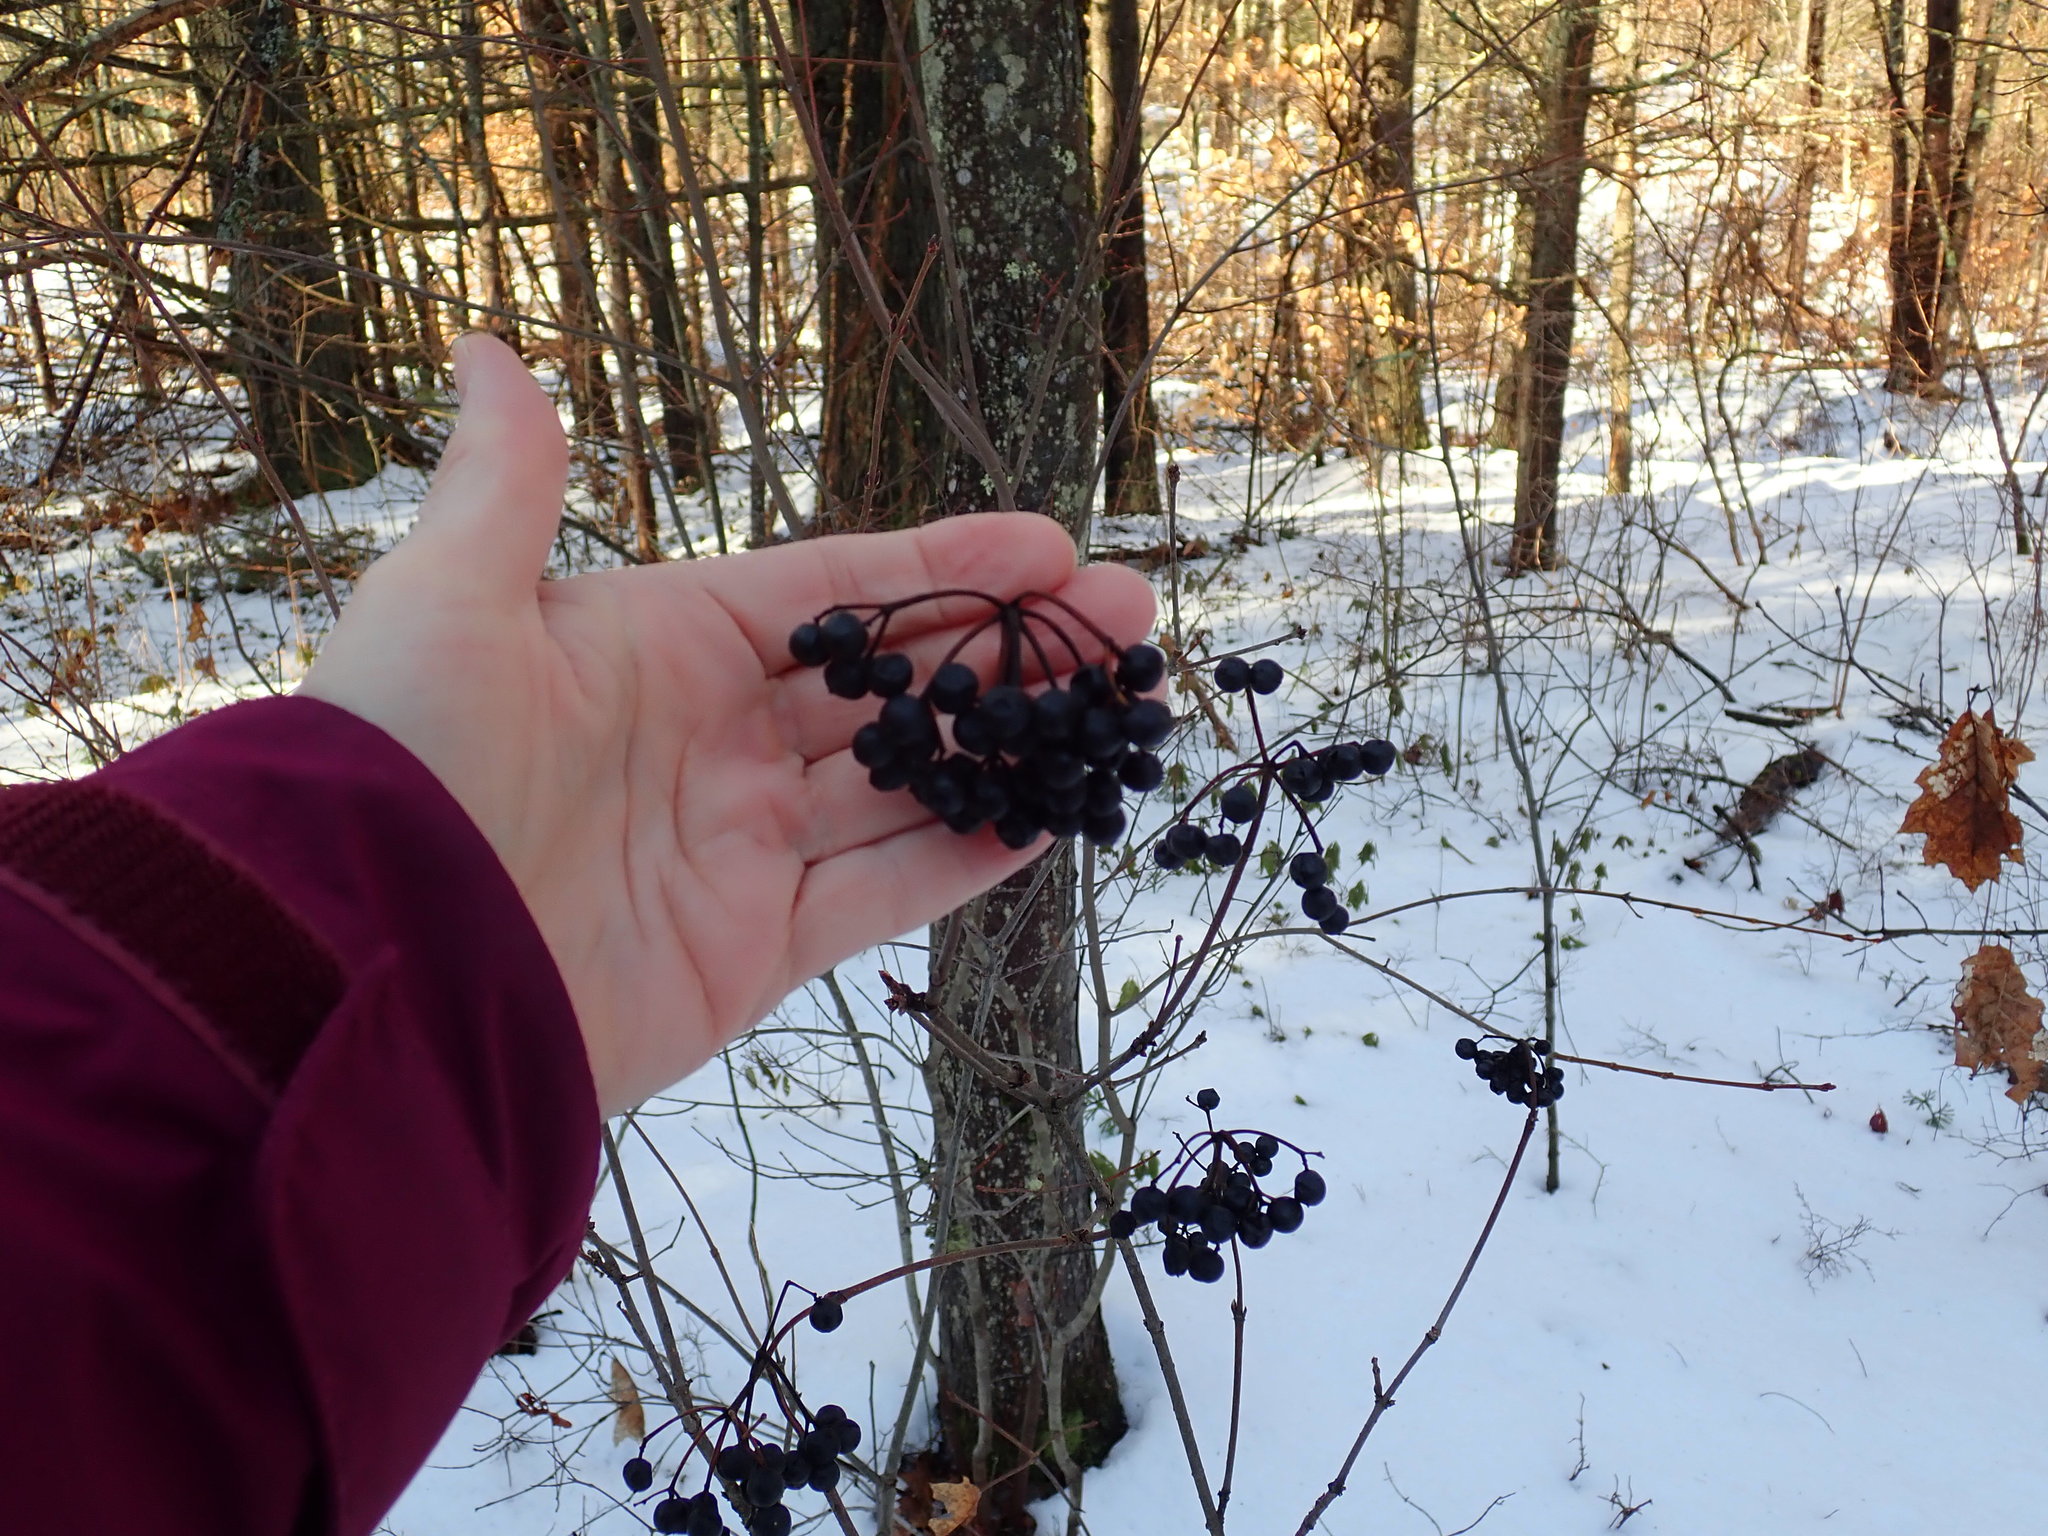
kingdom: Plantae
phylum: Tracheophyta
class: Magnoliopsida
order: Dipsacales
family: Viburnaceae
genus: Viburnum
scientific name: Viburnum acerifolium
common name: Dockmackie
